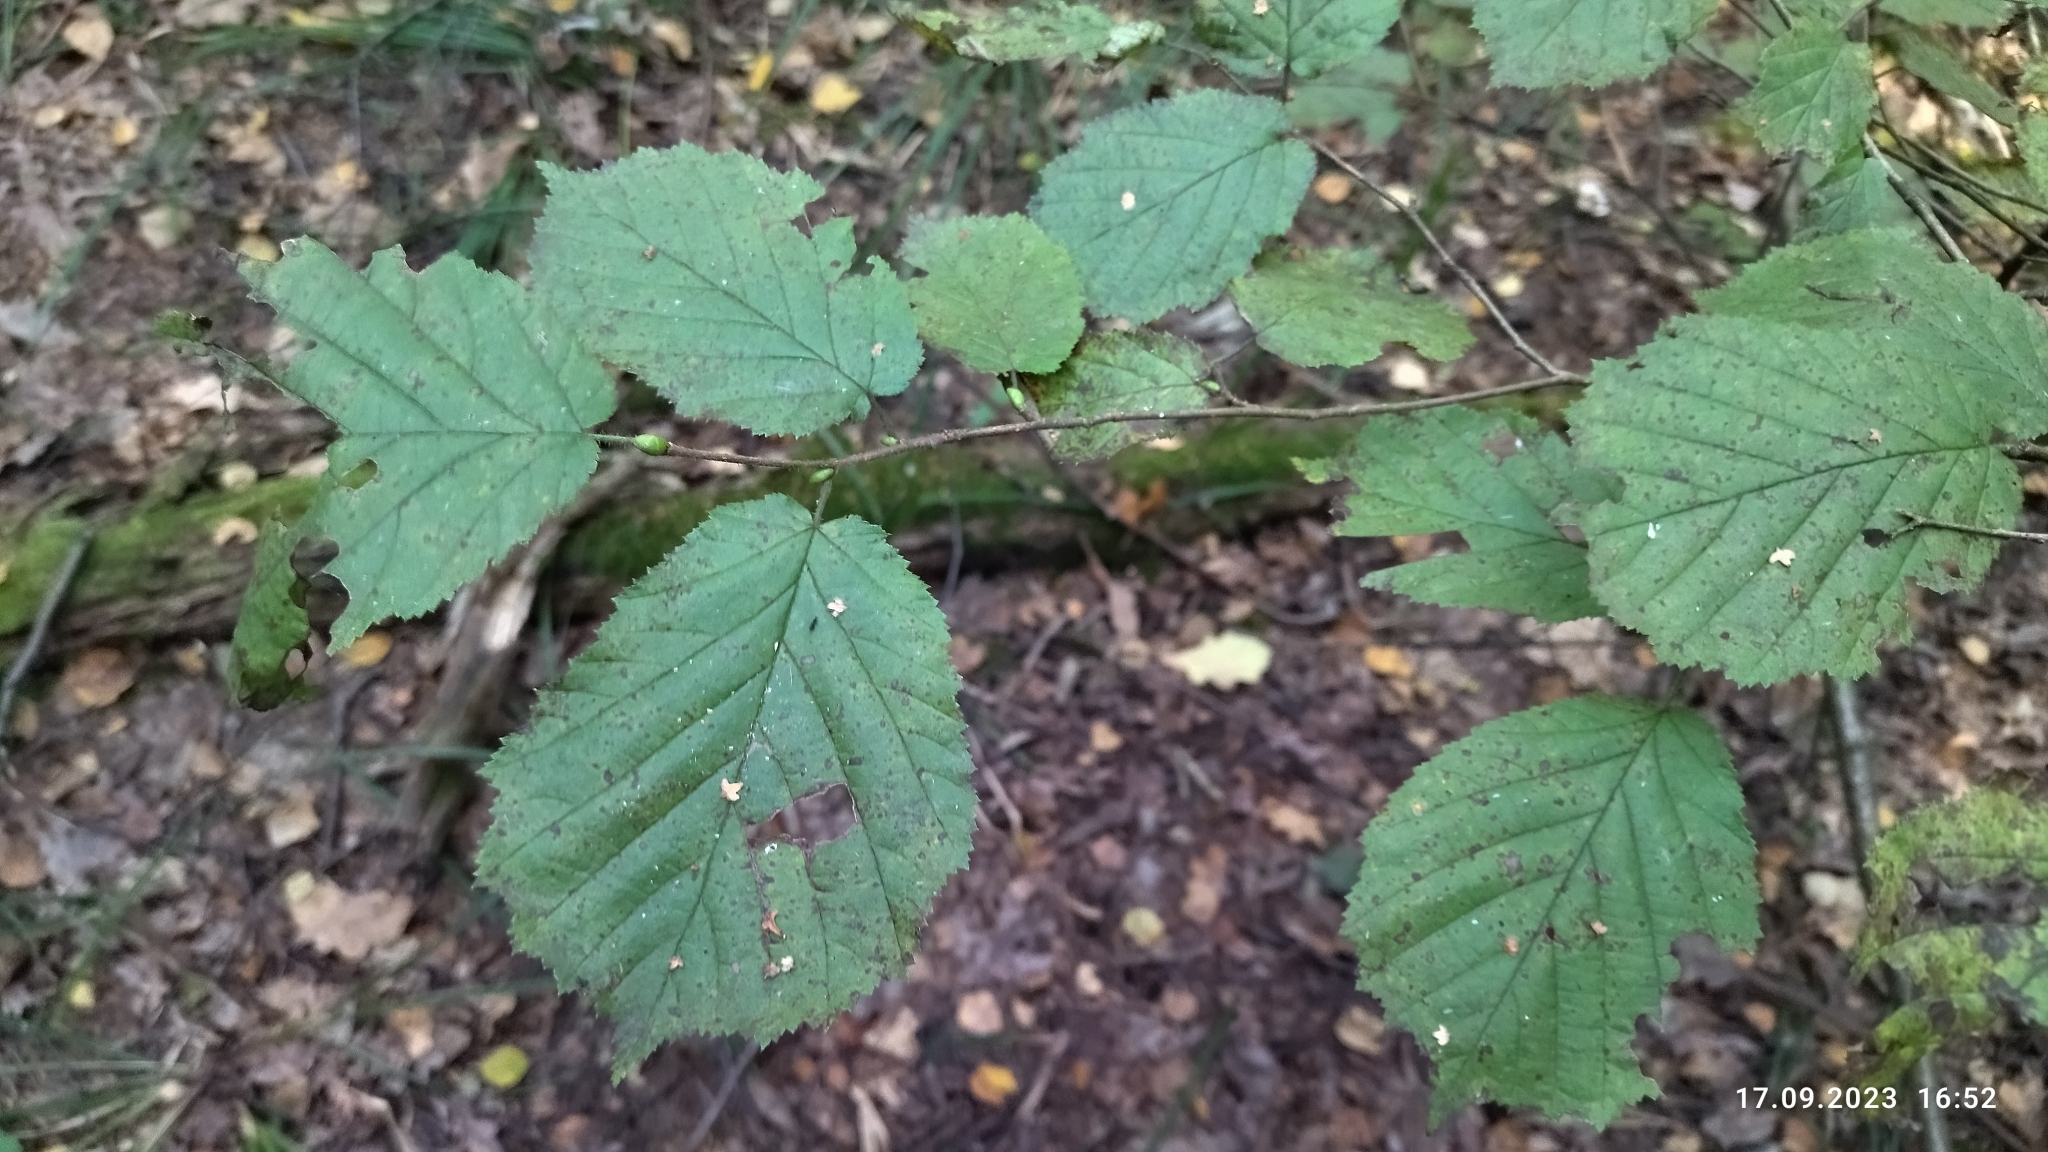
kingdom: Plantae
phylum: Tracheophyta
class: Magnoliopsida
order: Fagales
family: Betulaceae
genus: Corylus
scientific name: Corylus avellana
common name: European hazel
